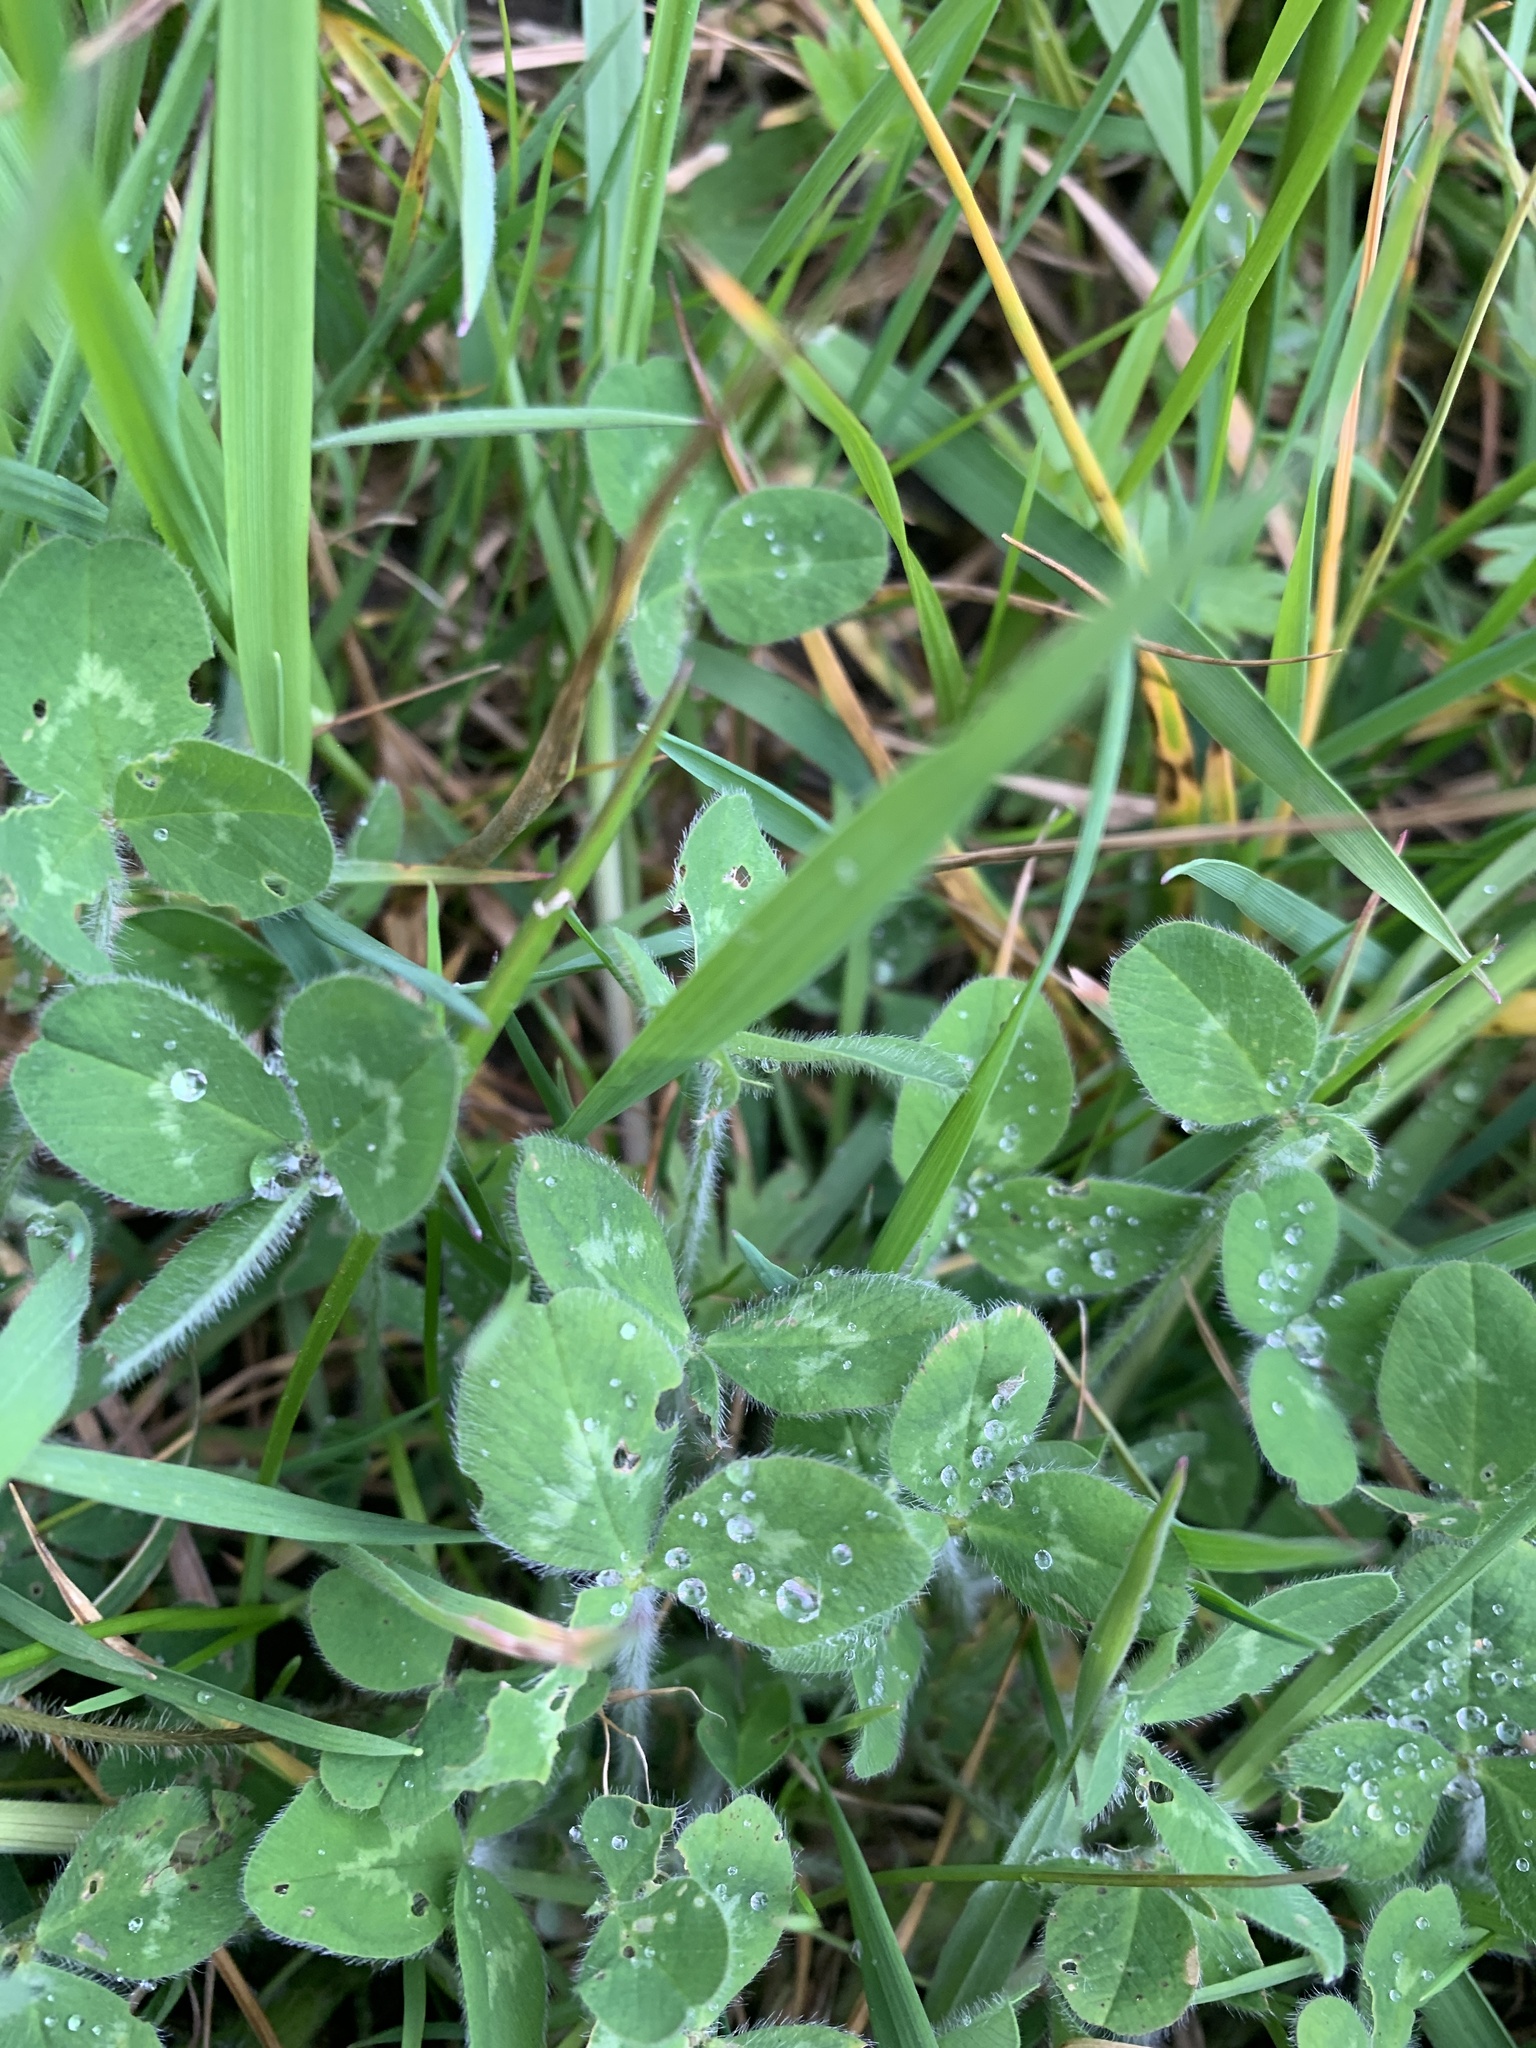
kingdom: Plantae
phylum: Tracheophyta
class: Magnoliopsida
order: Fabales
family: Fabaceae
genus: Trifolium
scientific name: Trifolium repens
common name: White clover
